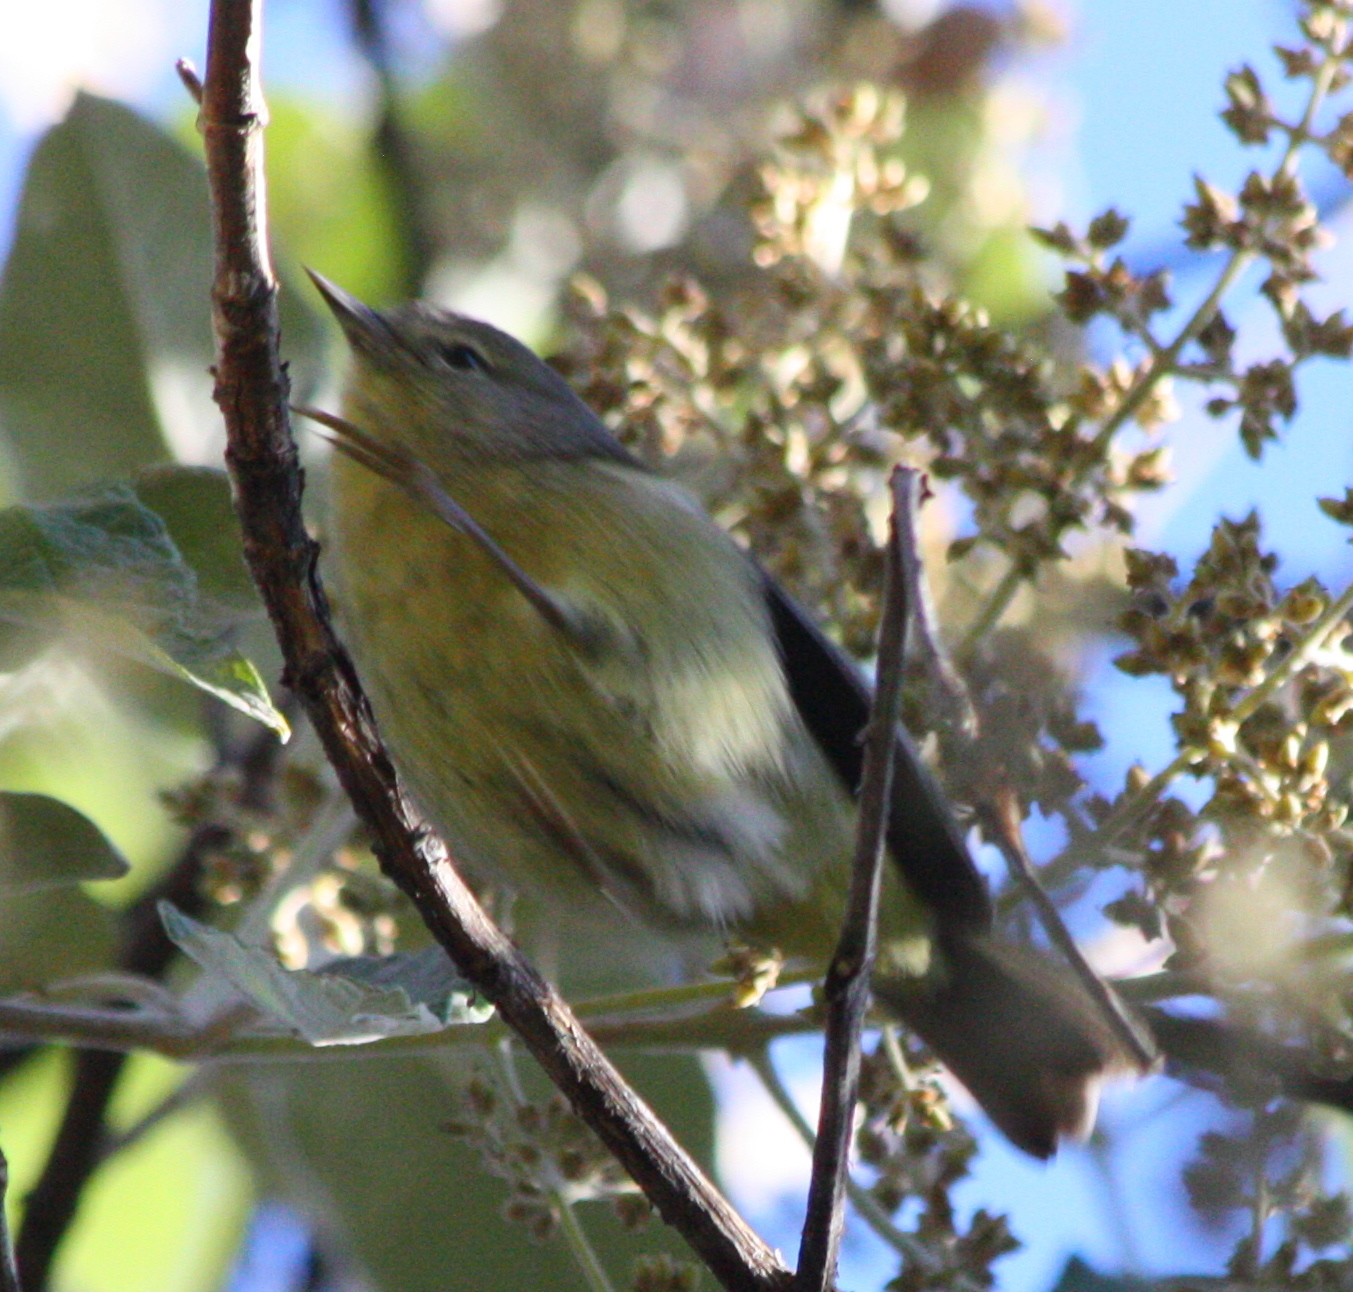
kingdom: Animalia
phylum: Chordata
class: Aves
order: Passeriformes
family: Parulidae
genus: Leiothlypis
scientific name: Leiothlypis celata
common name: Orange-crowned warbler
